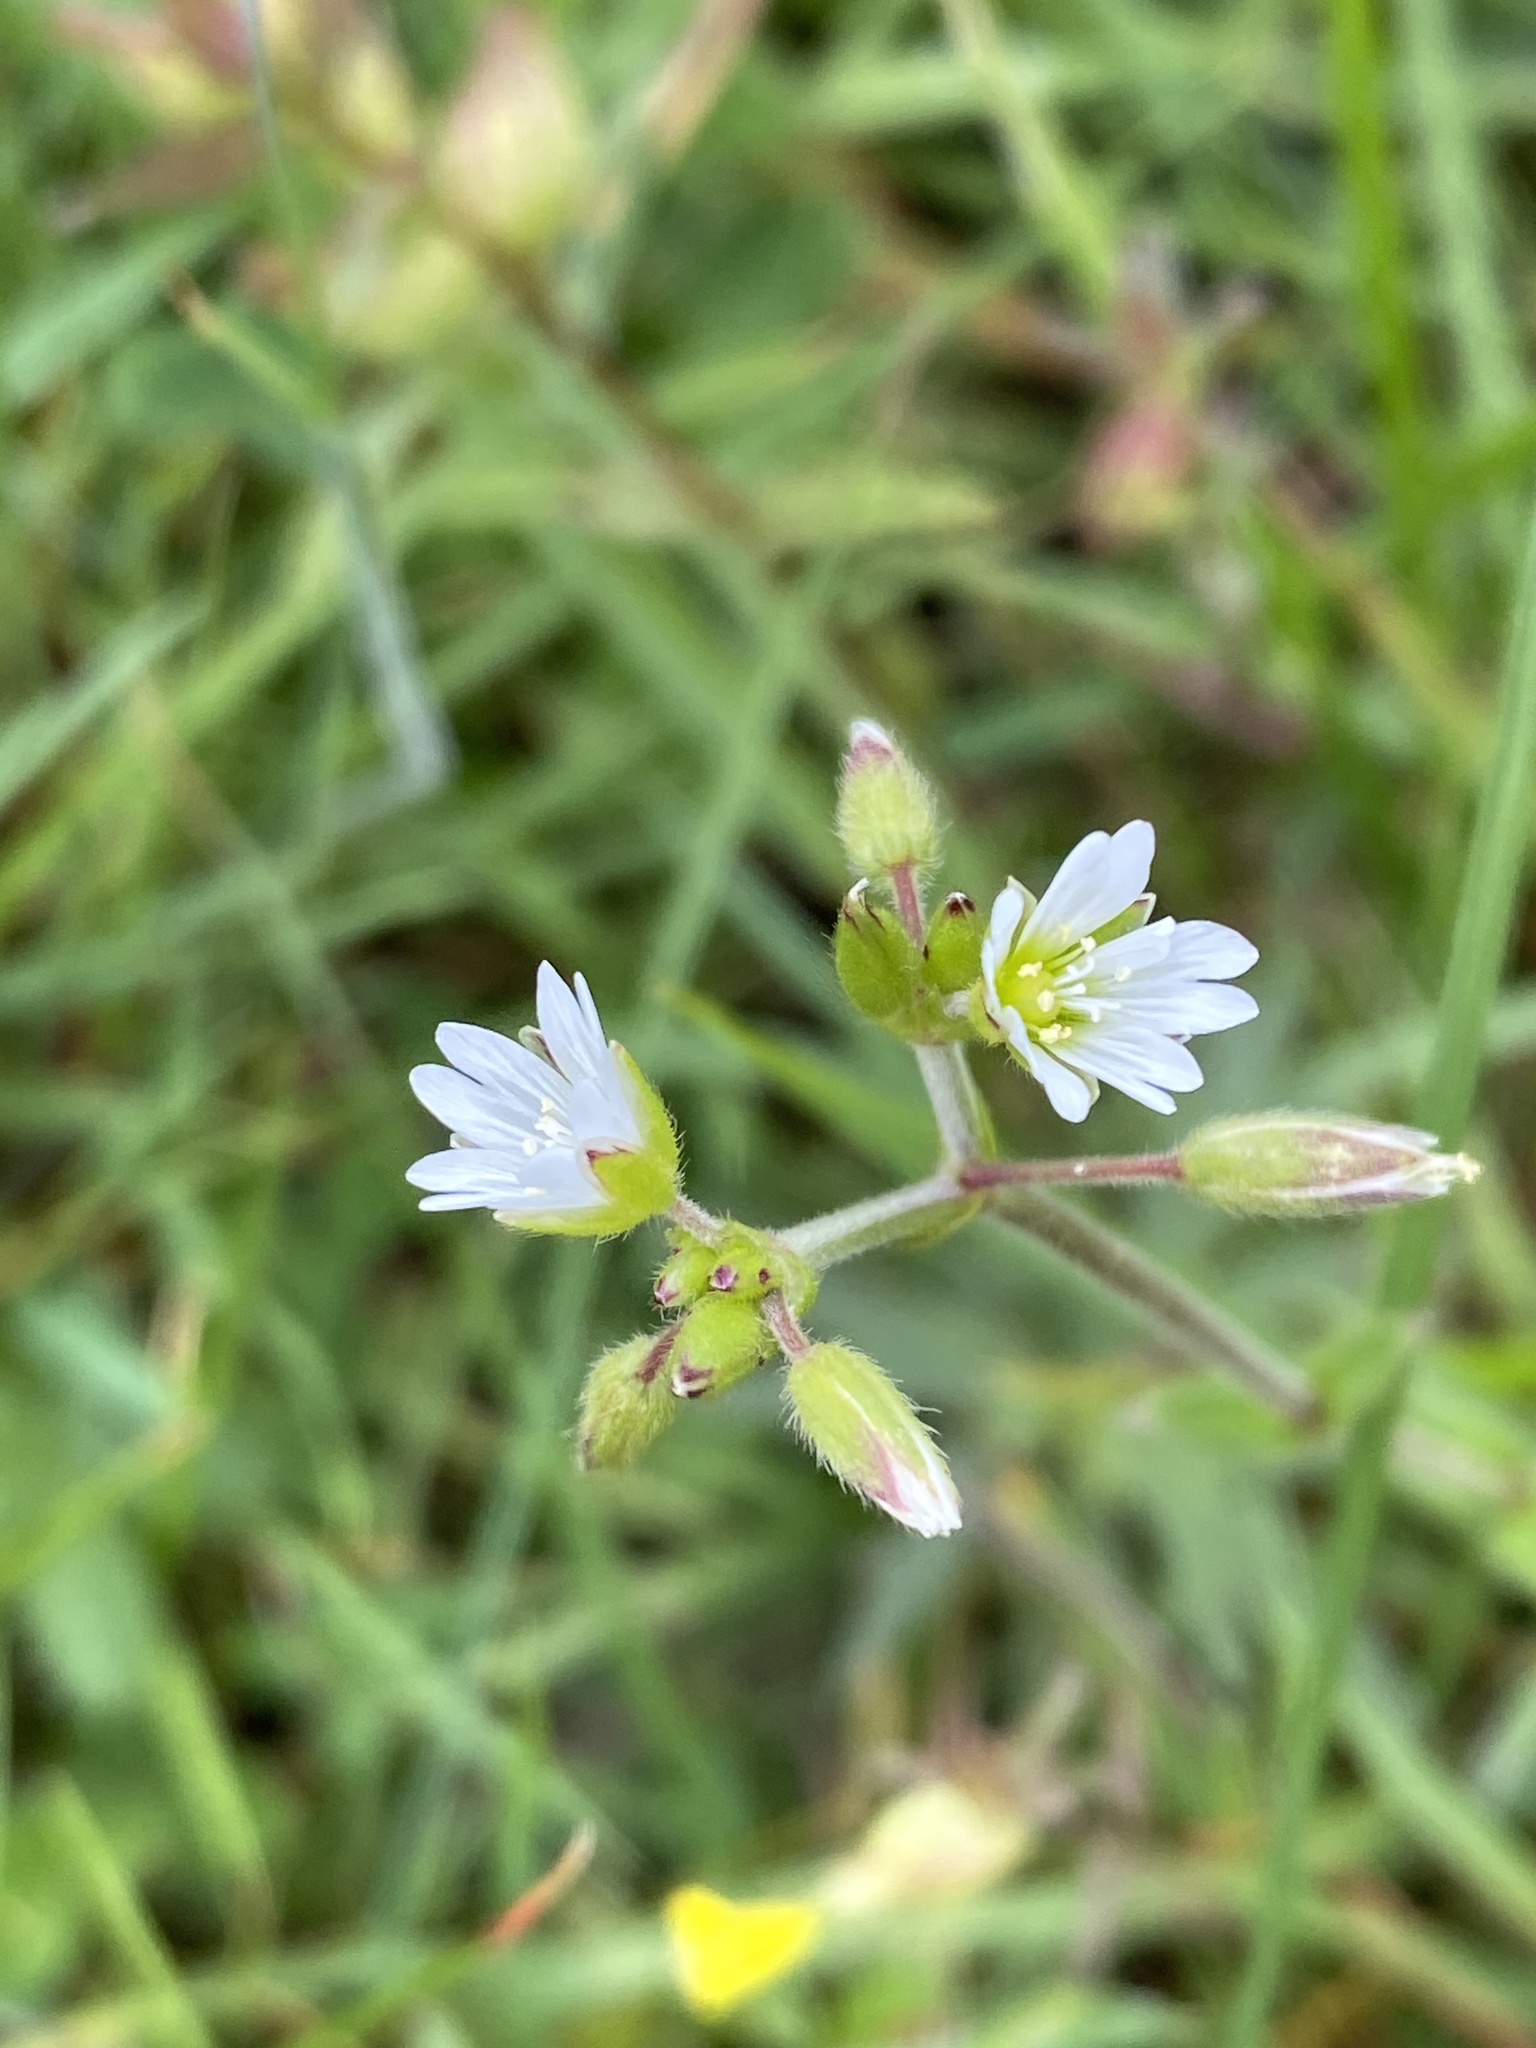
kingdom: Plantae
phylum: Tracheophyta
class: Magnoliopsida
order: Caryophyllales
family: Caryophyllaceae
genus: Cerastium
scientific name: Cerastium fontanum
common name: Common mouse-ear
